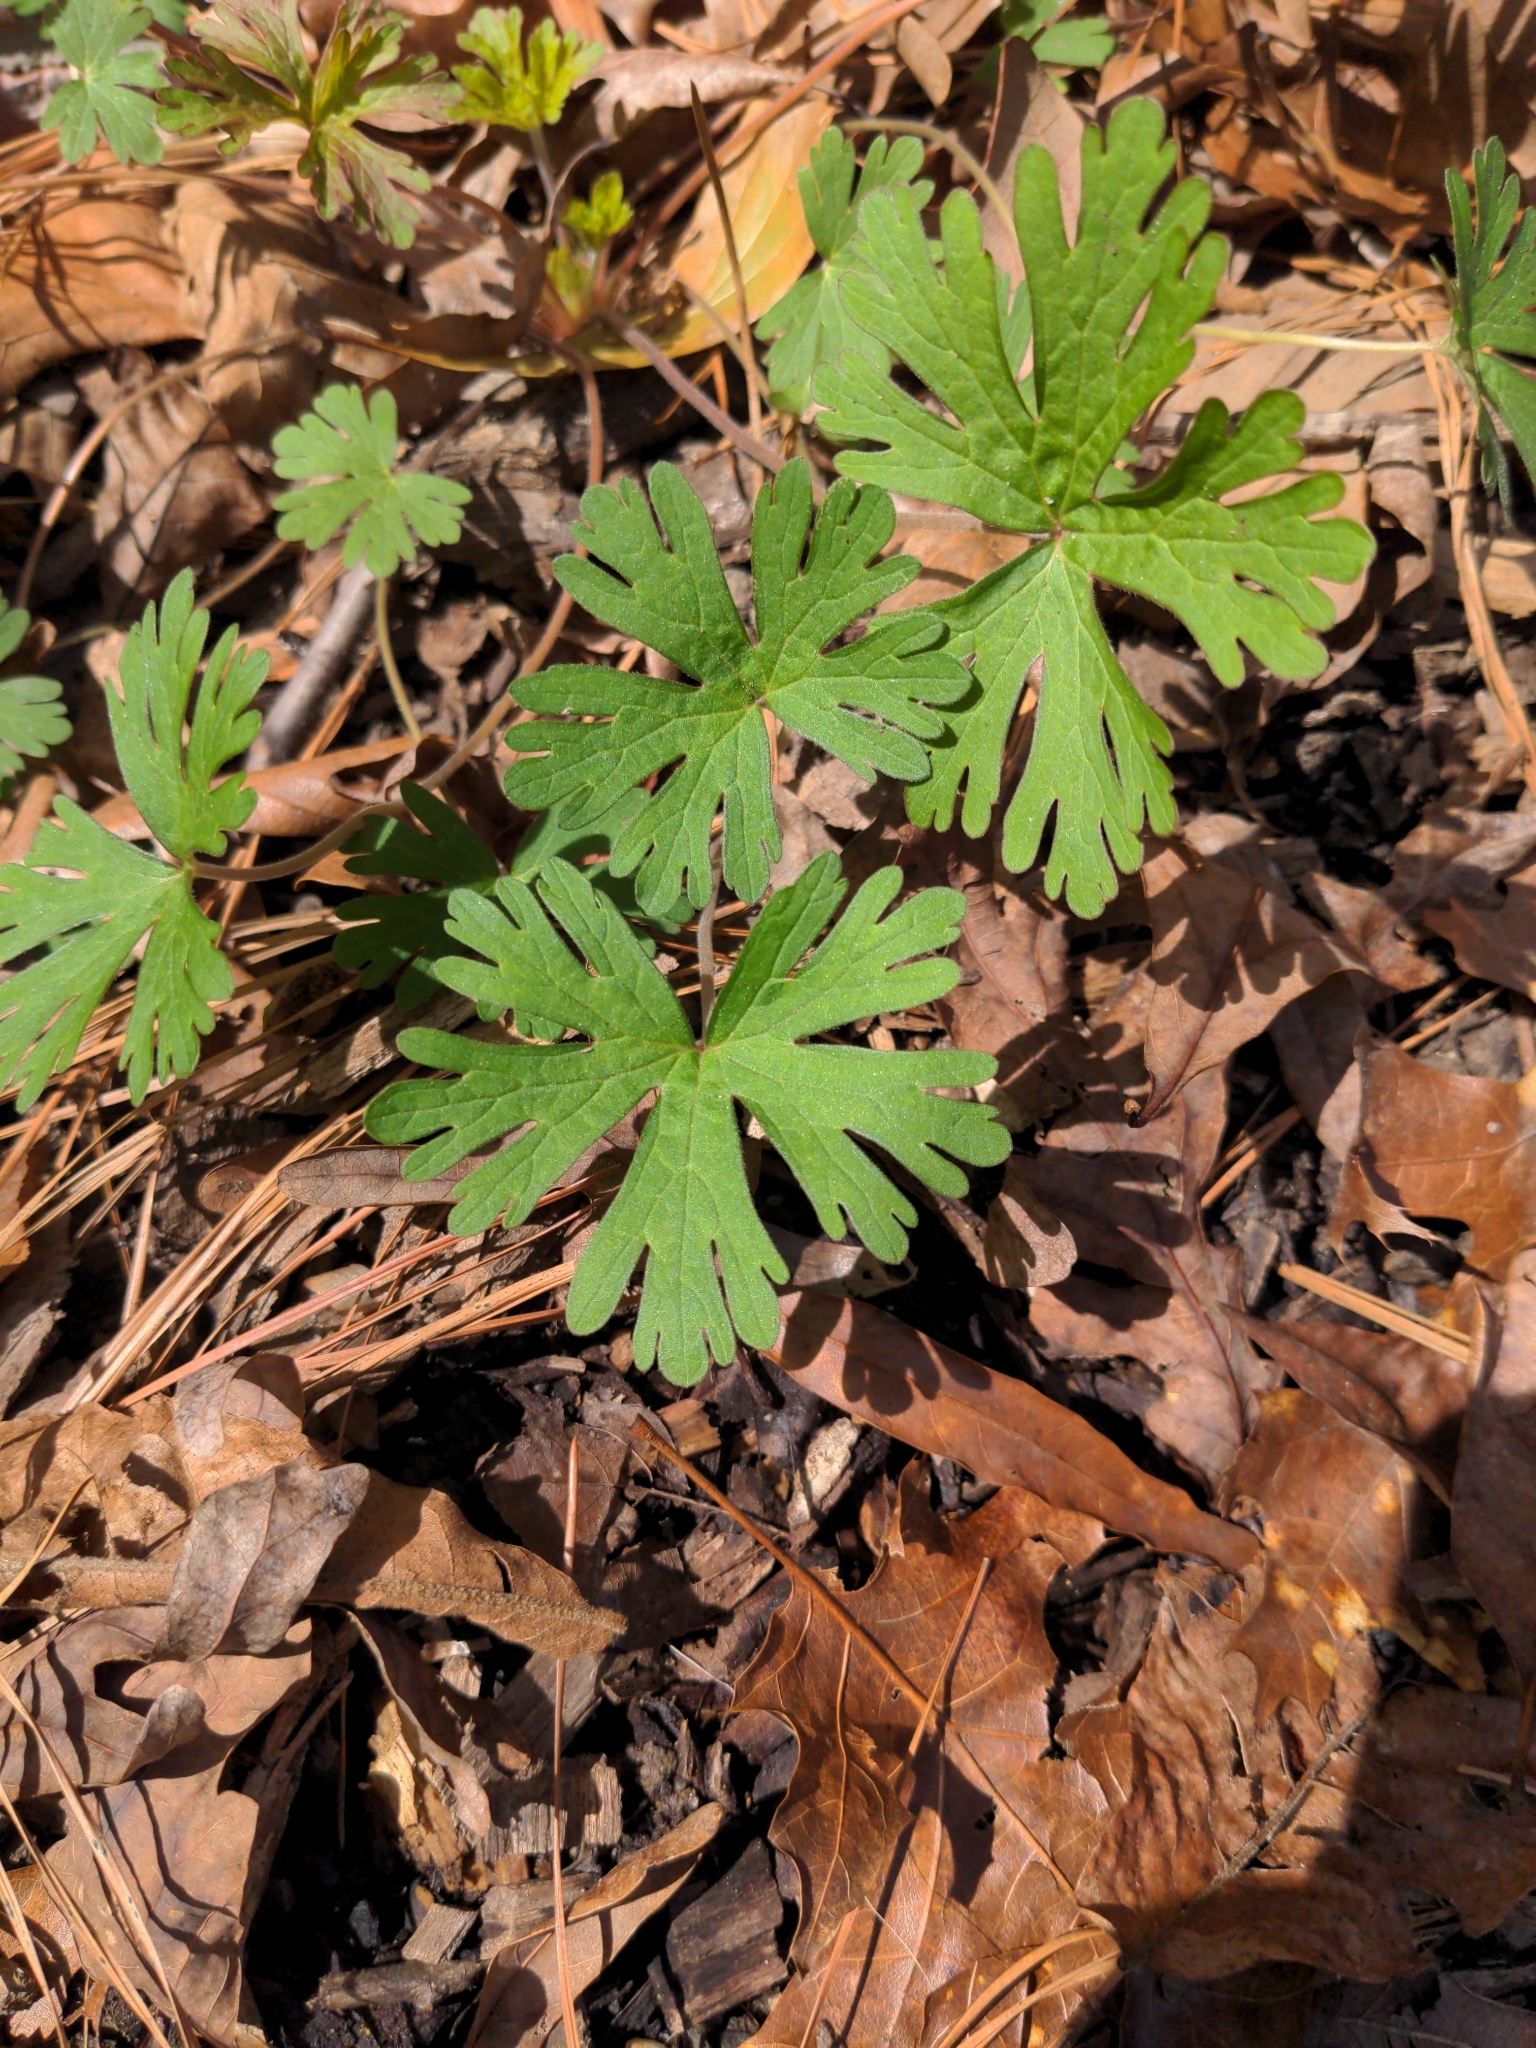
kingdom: Plantae
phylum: Tracheophyta
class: Magnoliopsida
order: Geraniales
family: Geraniaceae
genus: Geranium
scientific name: Geranium carolinianum
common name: Carolina crane's-bill
